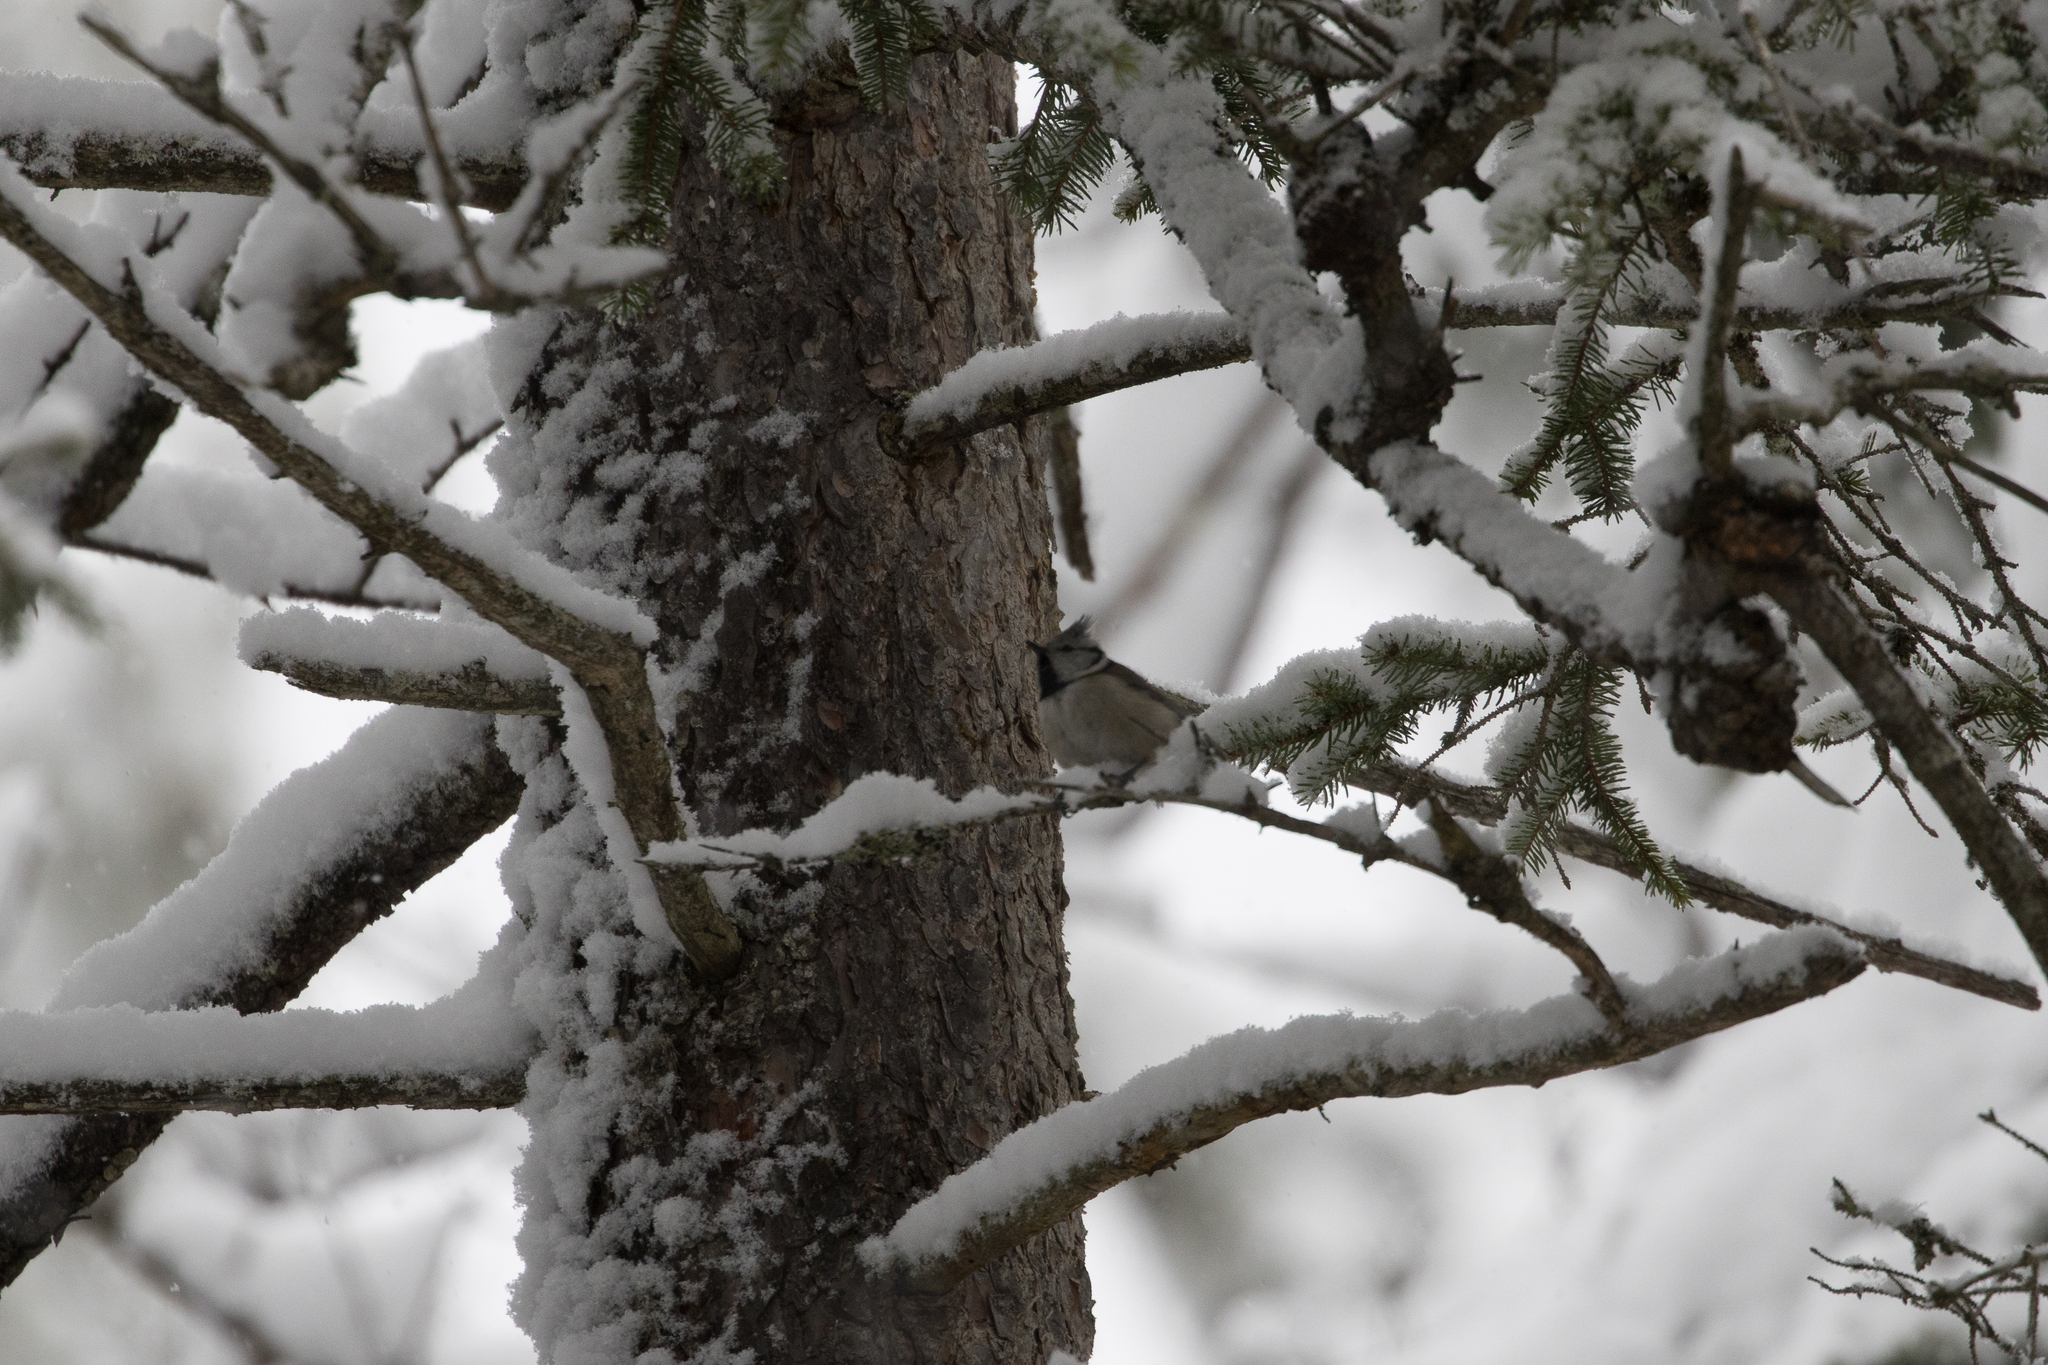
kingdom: Animalia
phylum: Chordata
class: Aves
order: Passeriformes
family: Paridae
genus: Lophophanes
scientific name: Lophophanes cristatus
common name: European crested tit
